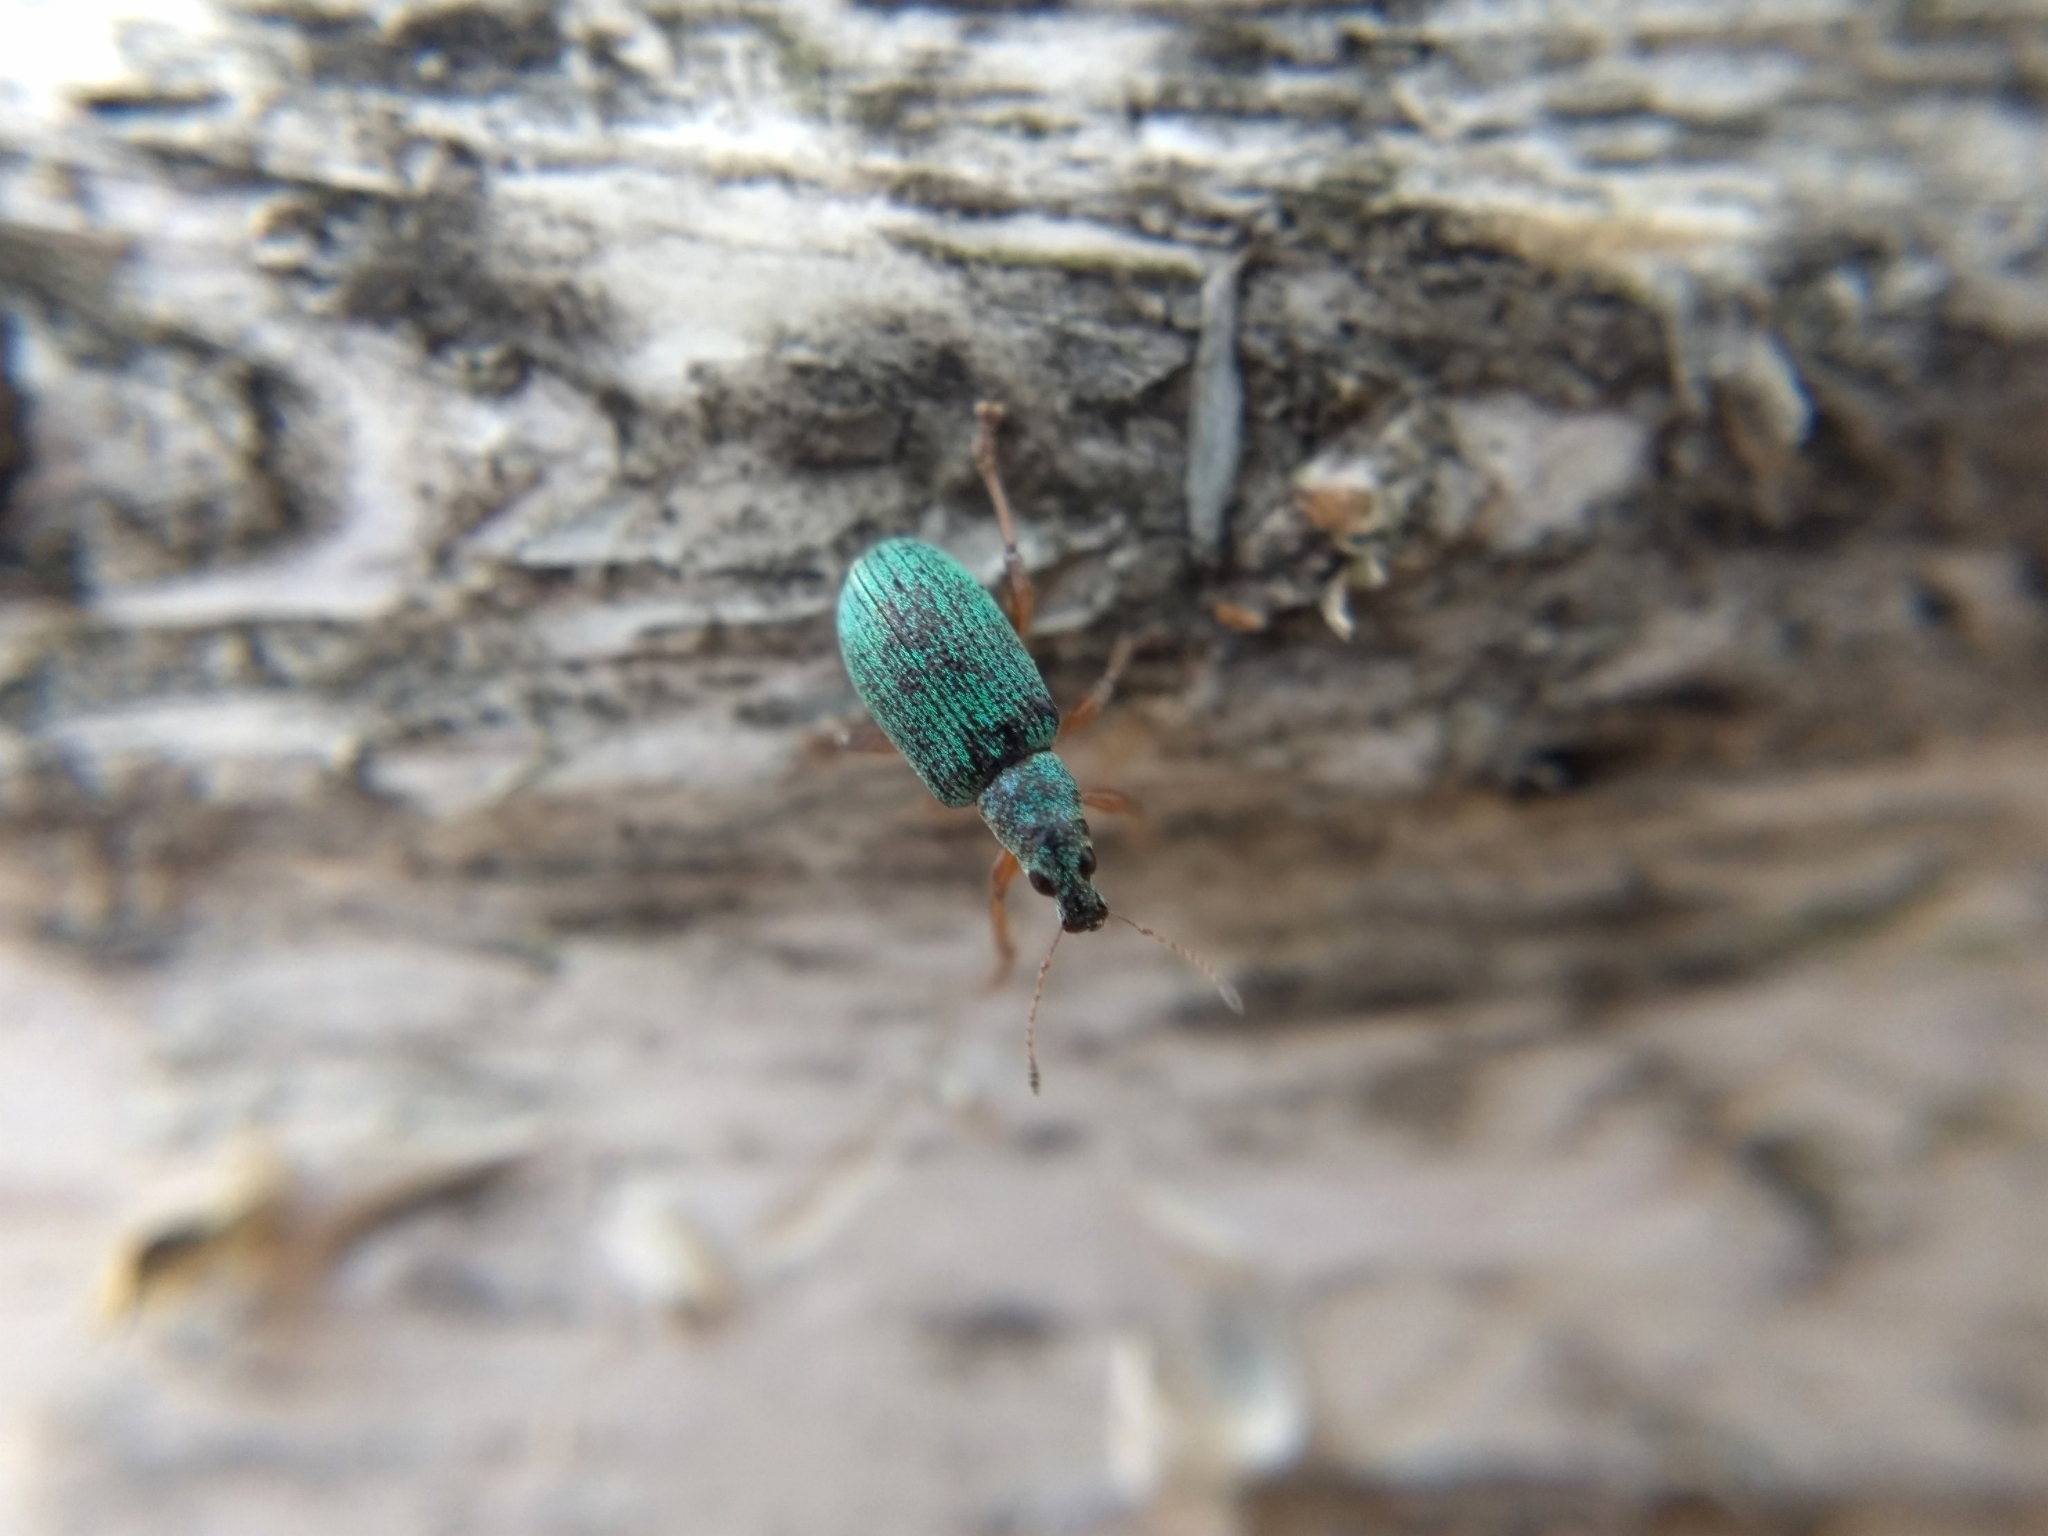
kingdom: Animalia
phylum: Arthropoda
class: Insecta
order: Coleoptera
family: Curculionidae
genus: Polydrusus
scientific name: Polydrusus formosus
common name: Weevil
